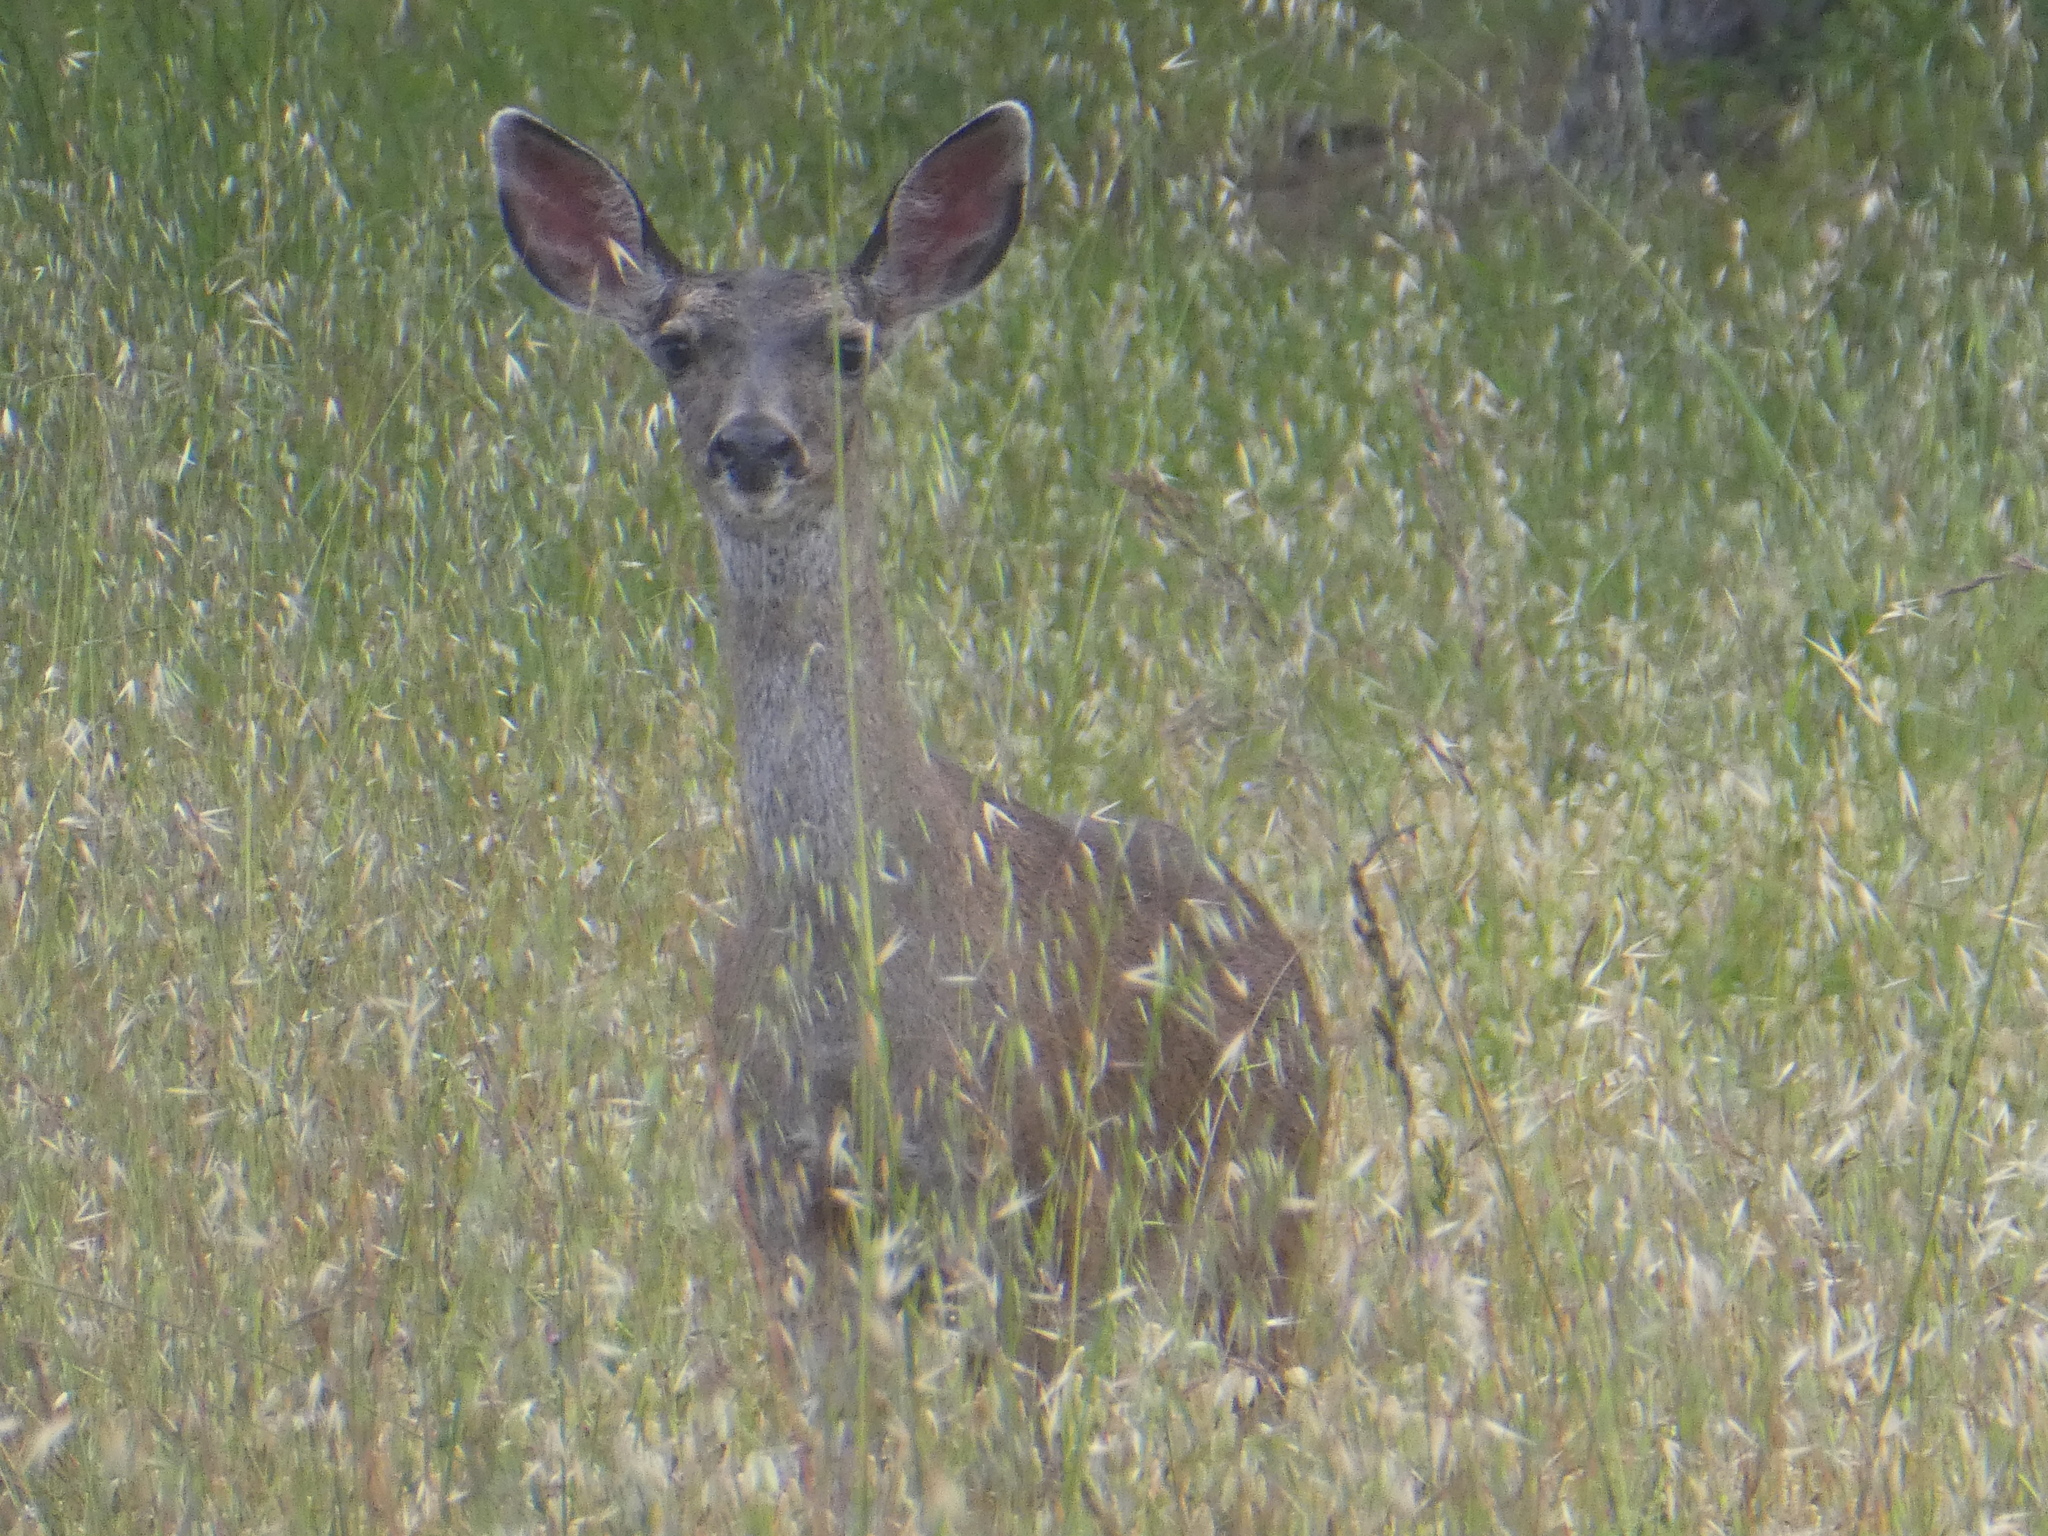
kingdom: Animalia
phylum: Chordata
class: Mammalia
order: Artiodactyla
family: Cervidae
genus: Odocoileus
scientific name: Odocoileus hemionus
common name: Mule deer
